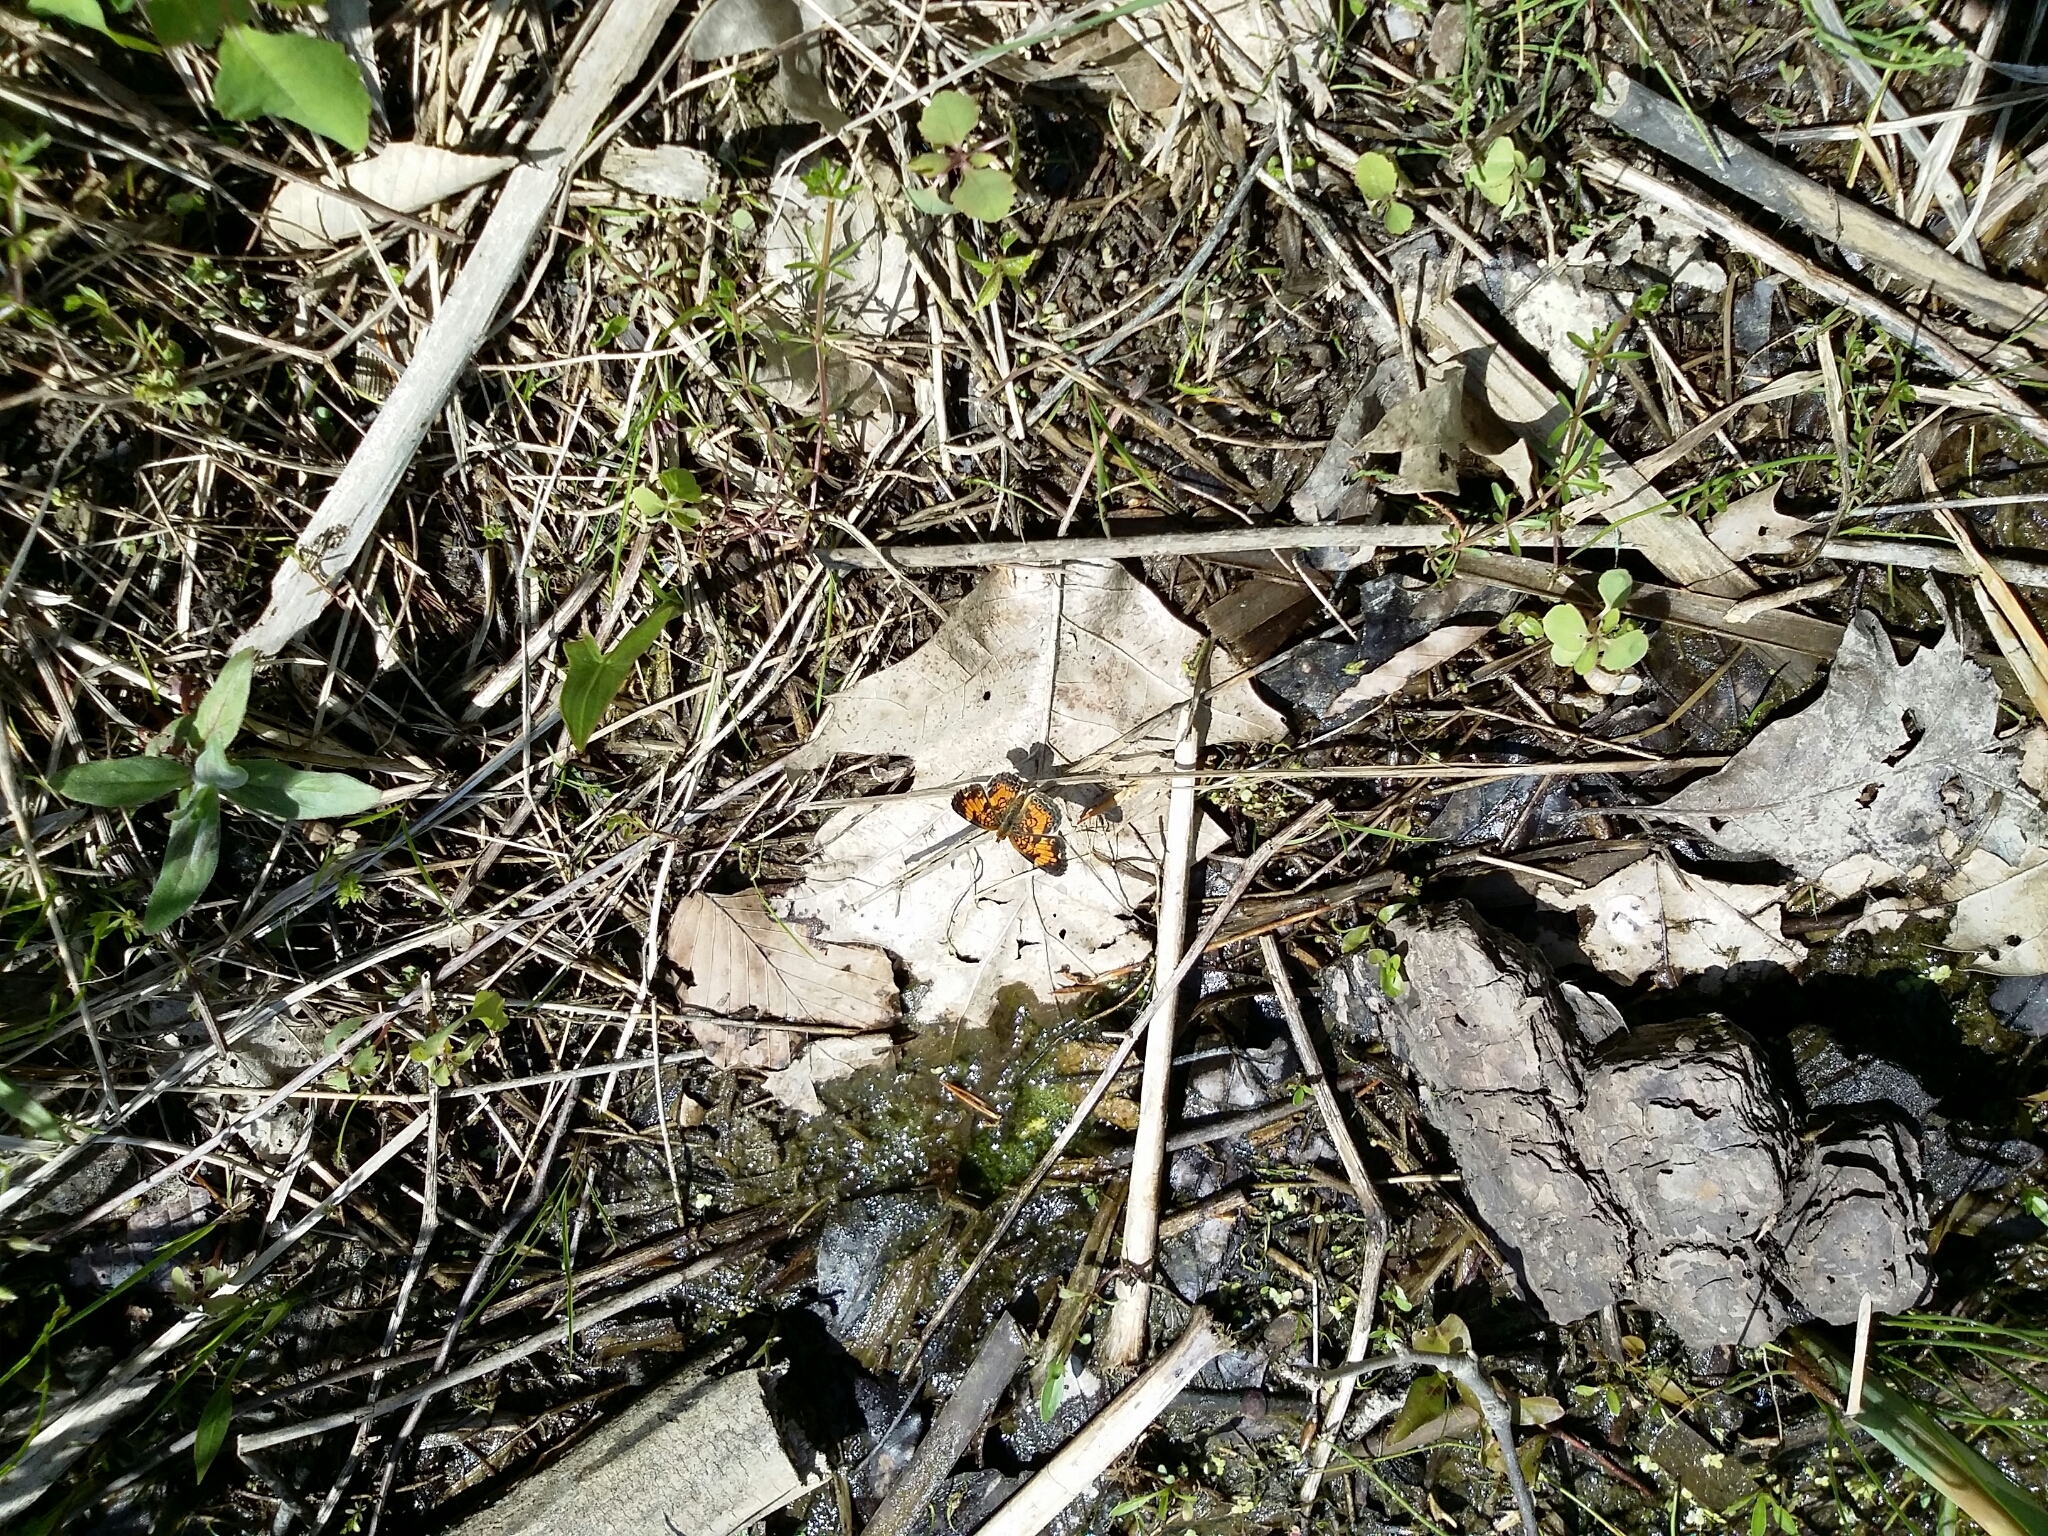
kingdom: Animalia
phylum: Arthropoda
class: Insecta
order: Lepidoptera
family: Nymphalidae
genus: Phyciodes
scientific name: Phyciodes tharos
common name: Pearl crescent
